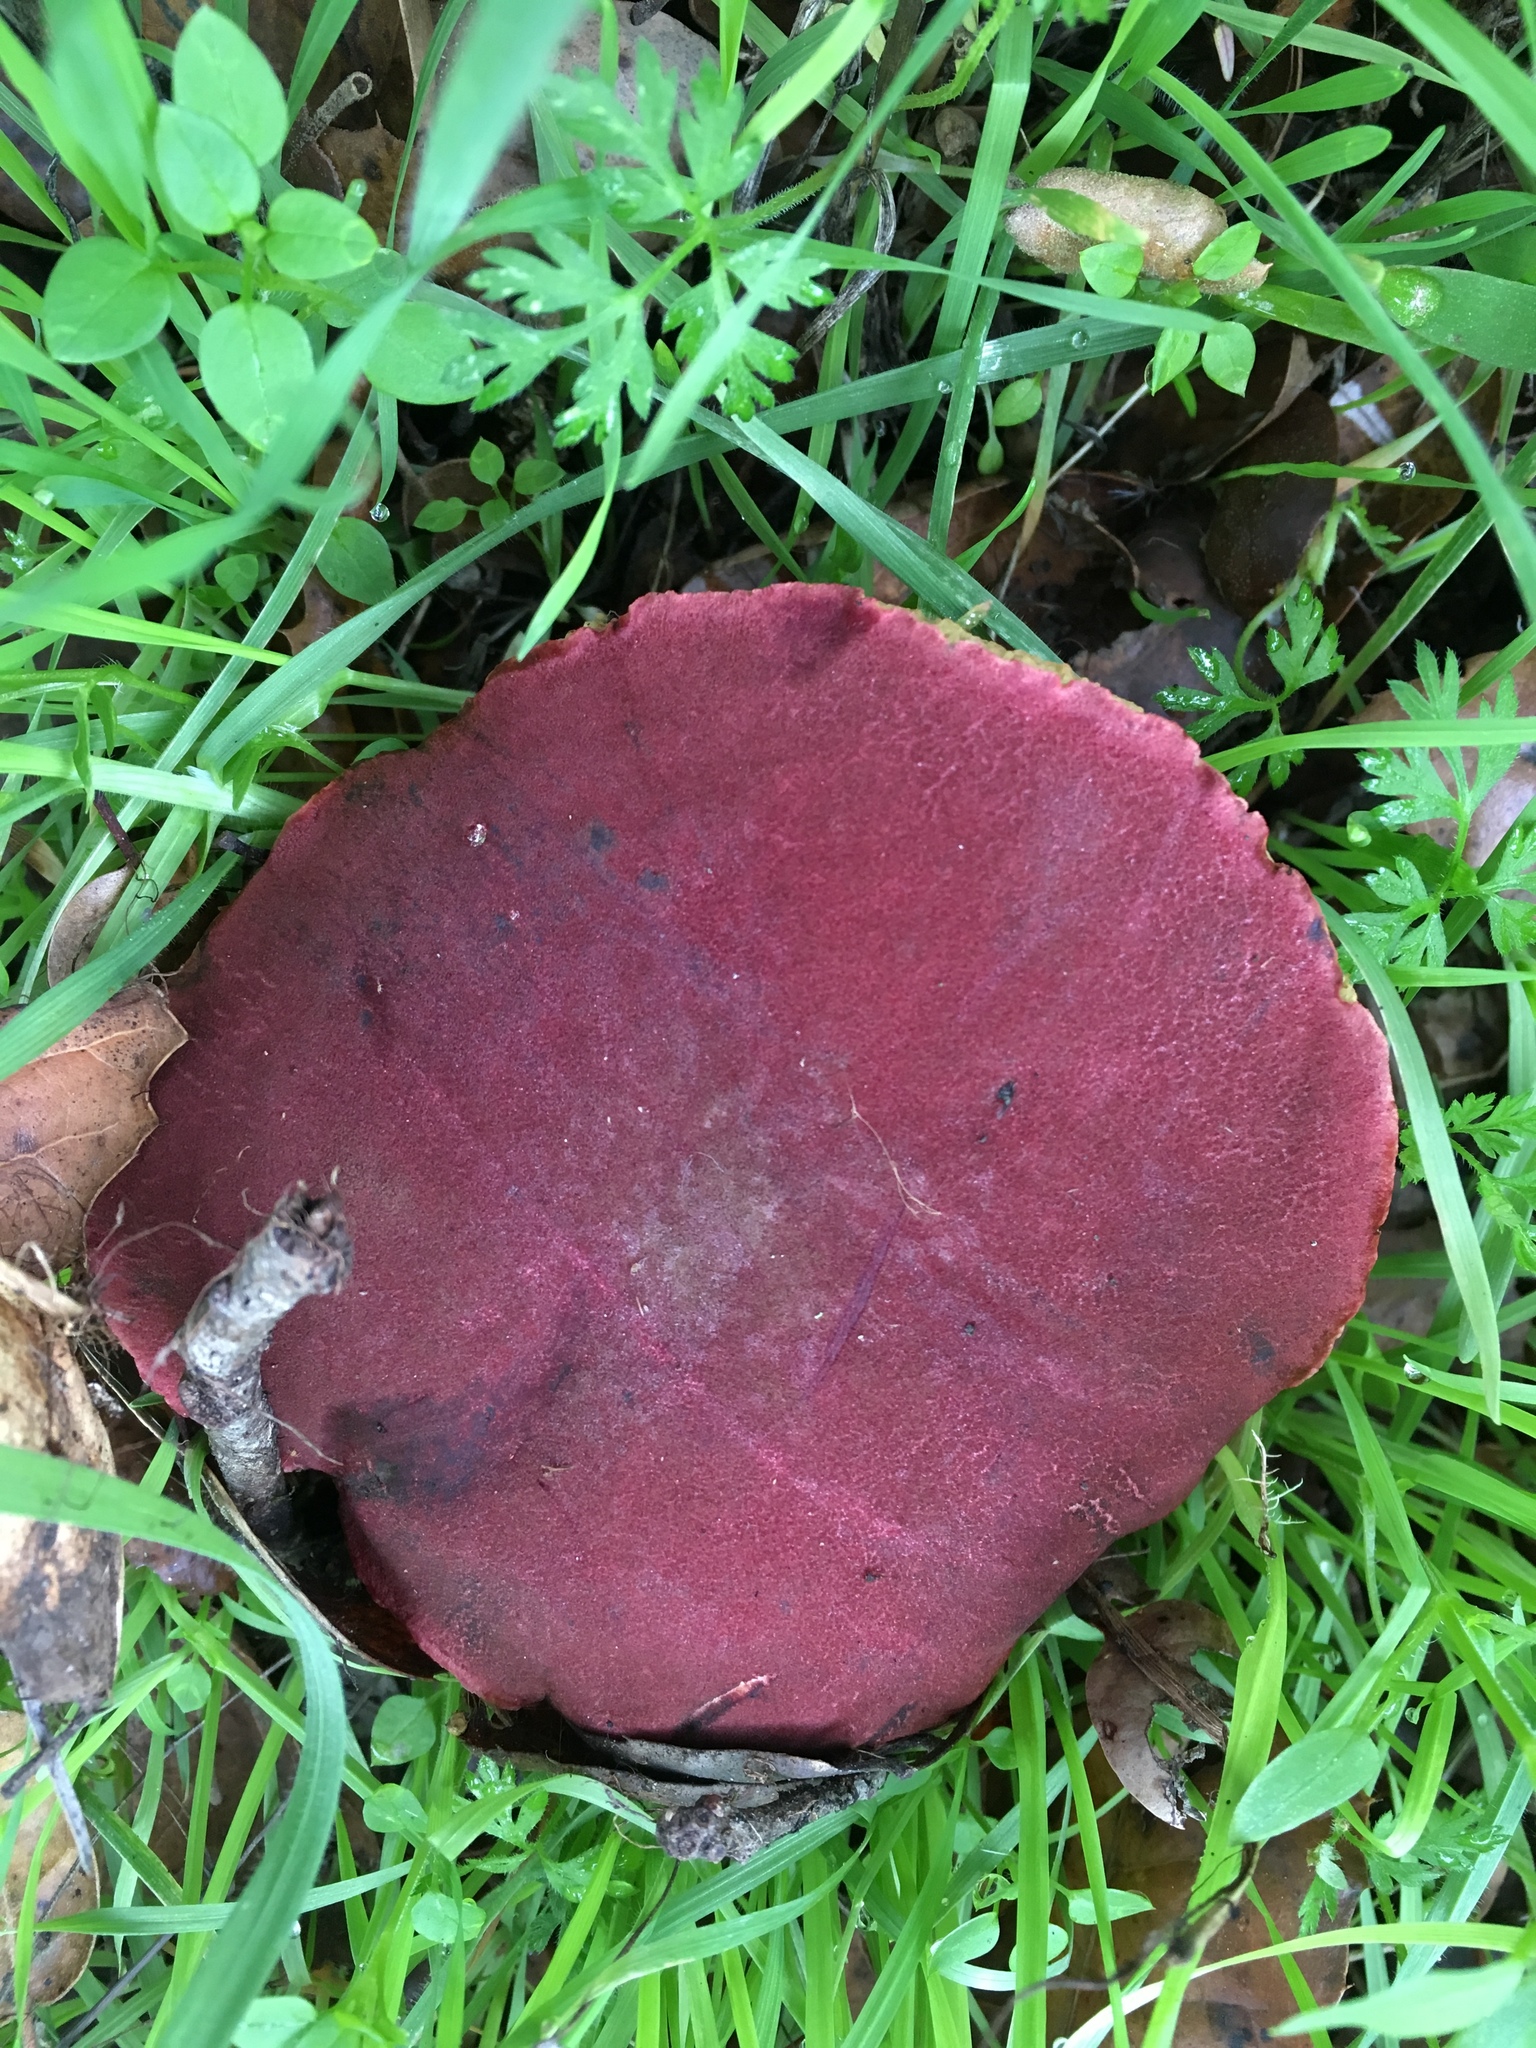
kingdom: Fungi
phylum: Basidiomycota
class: Agaricomycetes
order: Boletales
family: Boletaceae
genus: Xerocomellus
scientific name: Xerocomellus dryophilus
